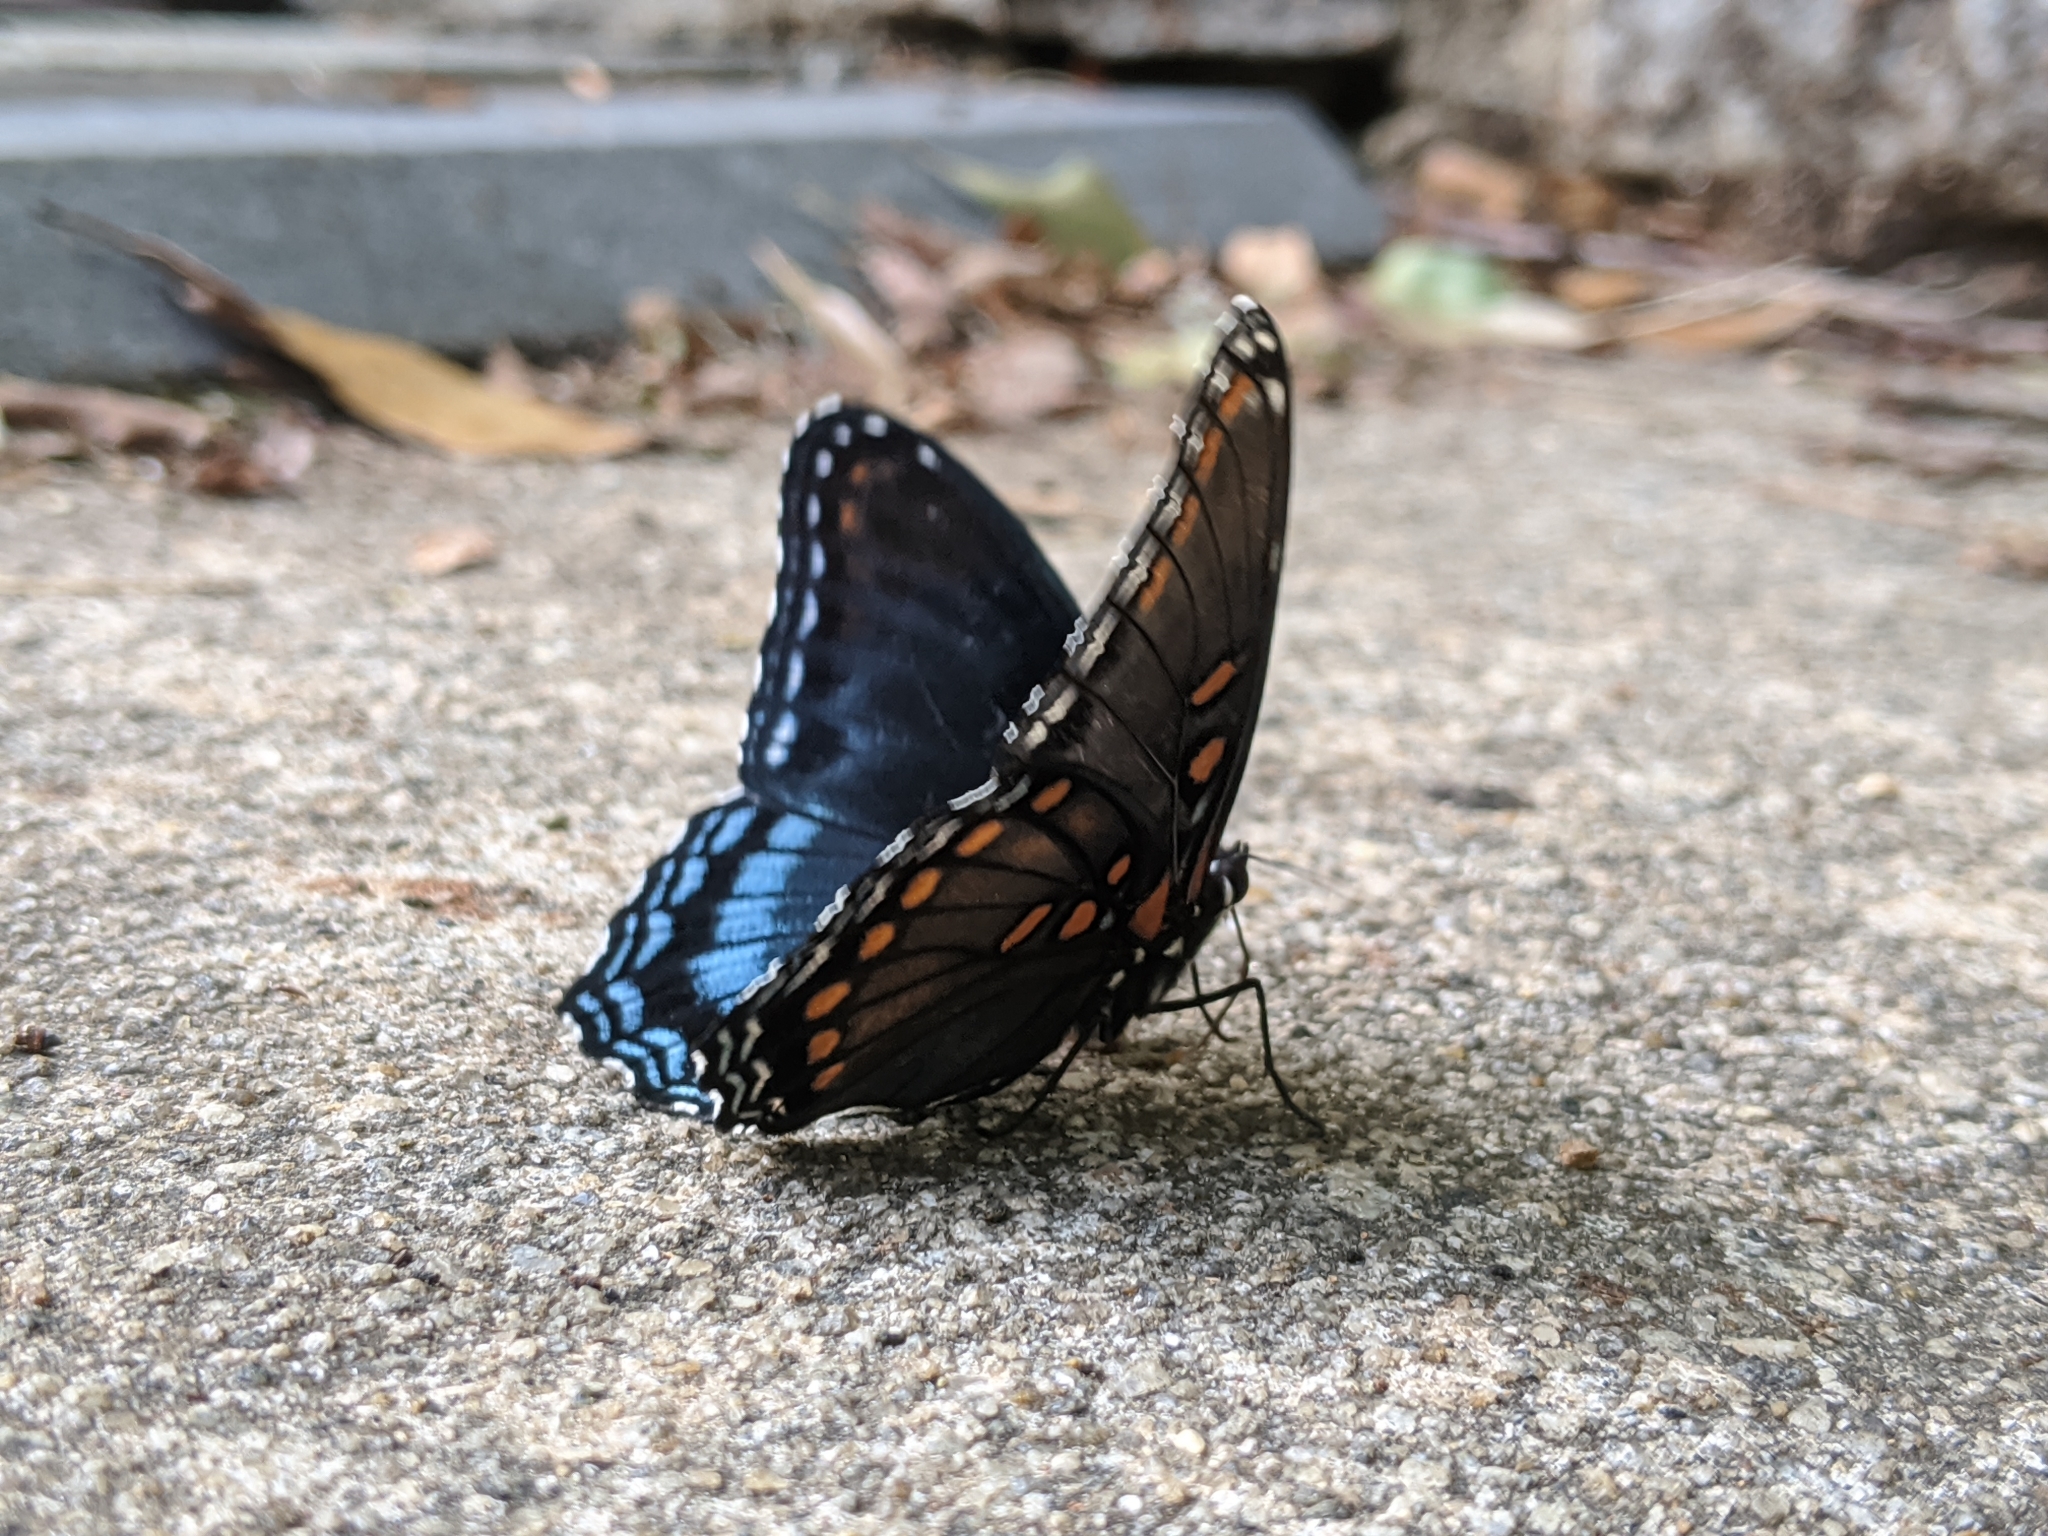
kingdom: Animalia
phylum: Arthropoda
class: Insecta
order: Lepidoptera
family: Nymphalidae
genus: Limenitis
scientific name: Limenitis astyanax
